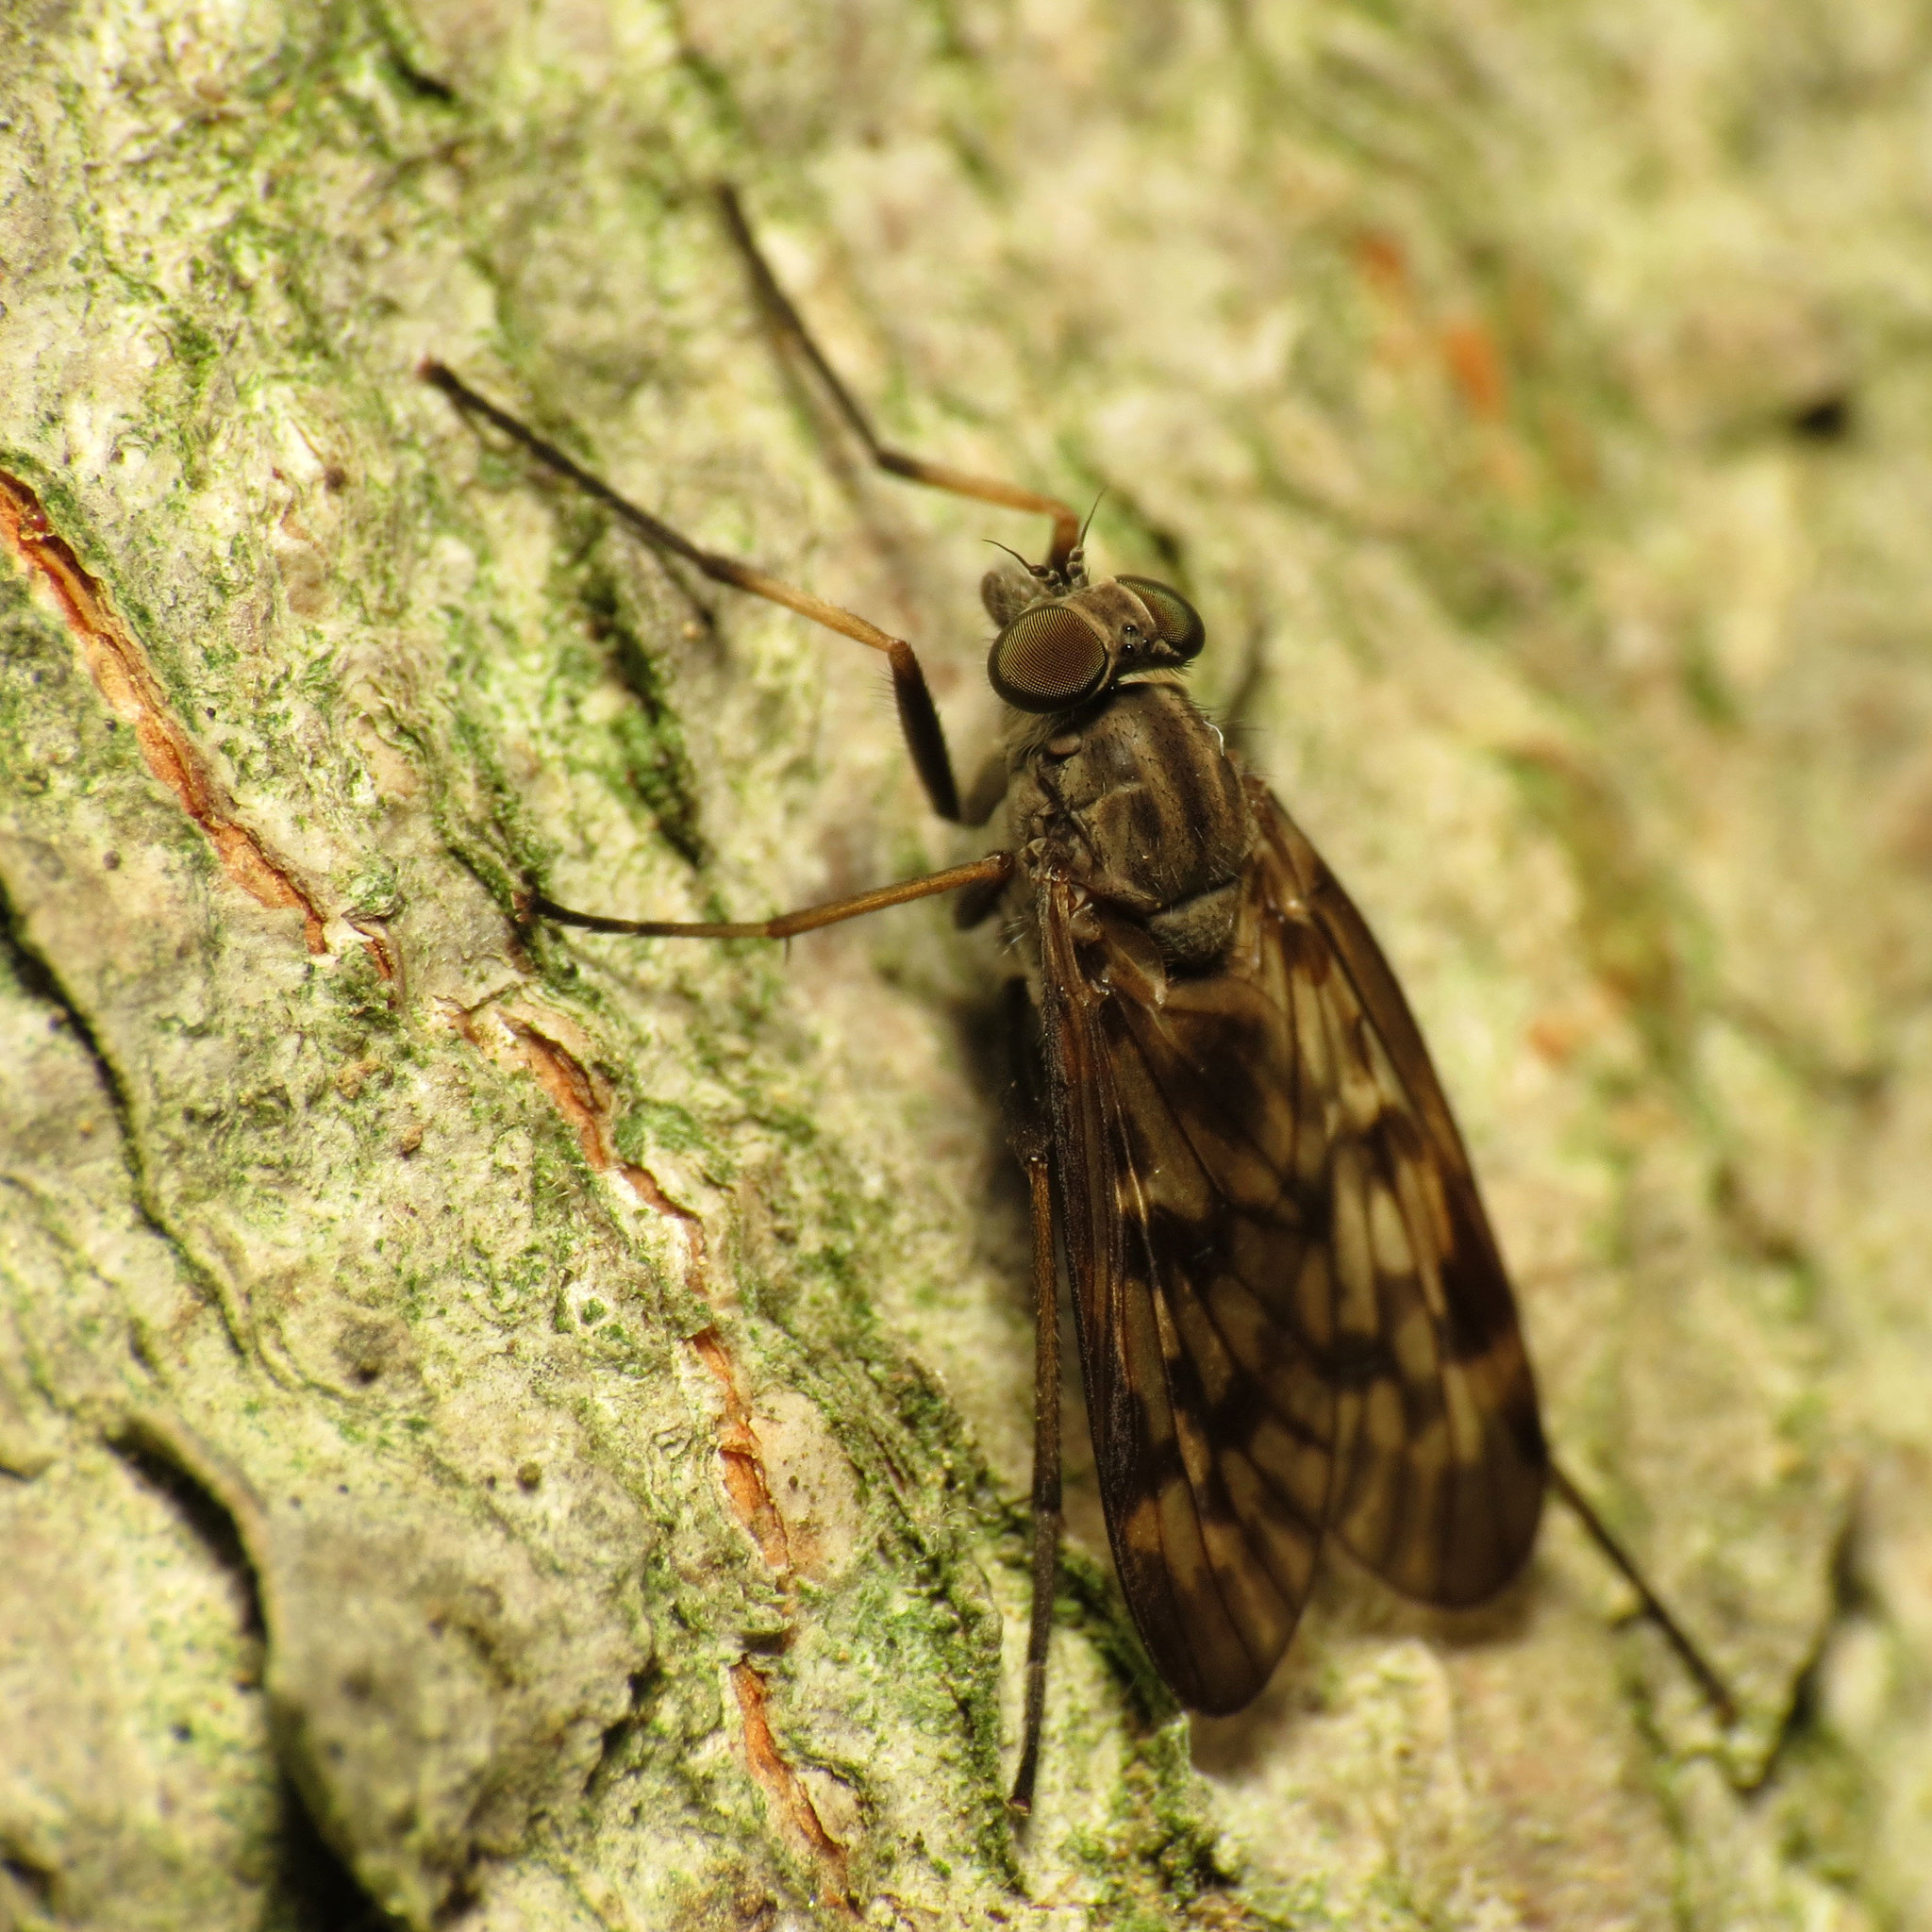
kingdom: Animalia
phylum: Arthropoda
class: Insecta
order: Diptera
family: Rhagionidae
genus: Rhagio
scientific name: Rhagio punctipennis
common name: Lesser variegated snipe fly
